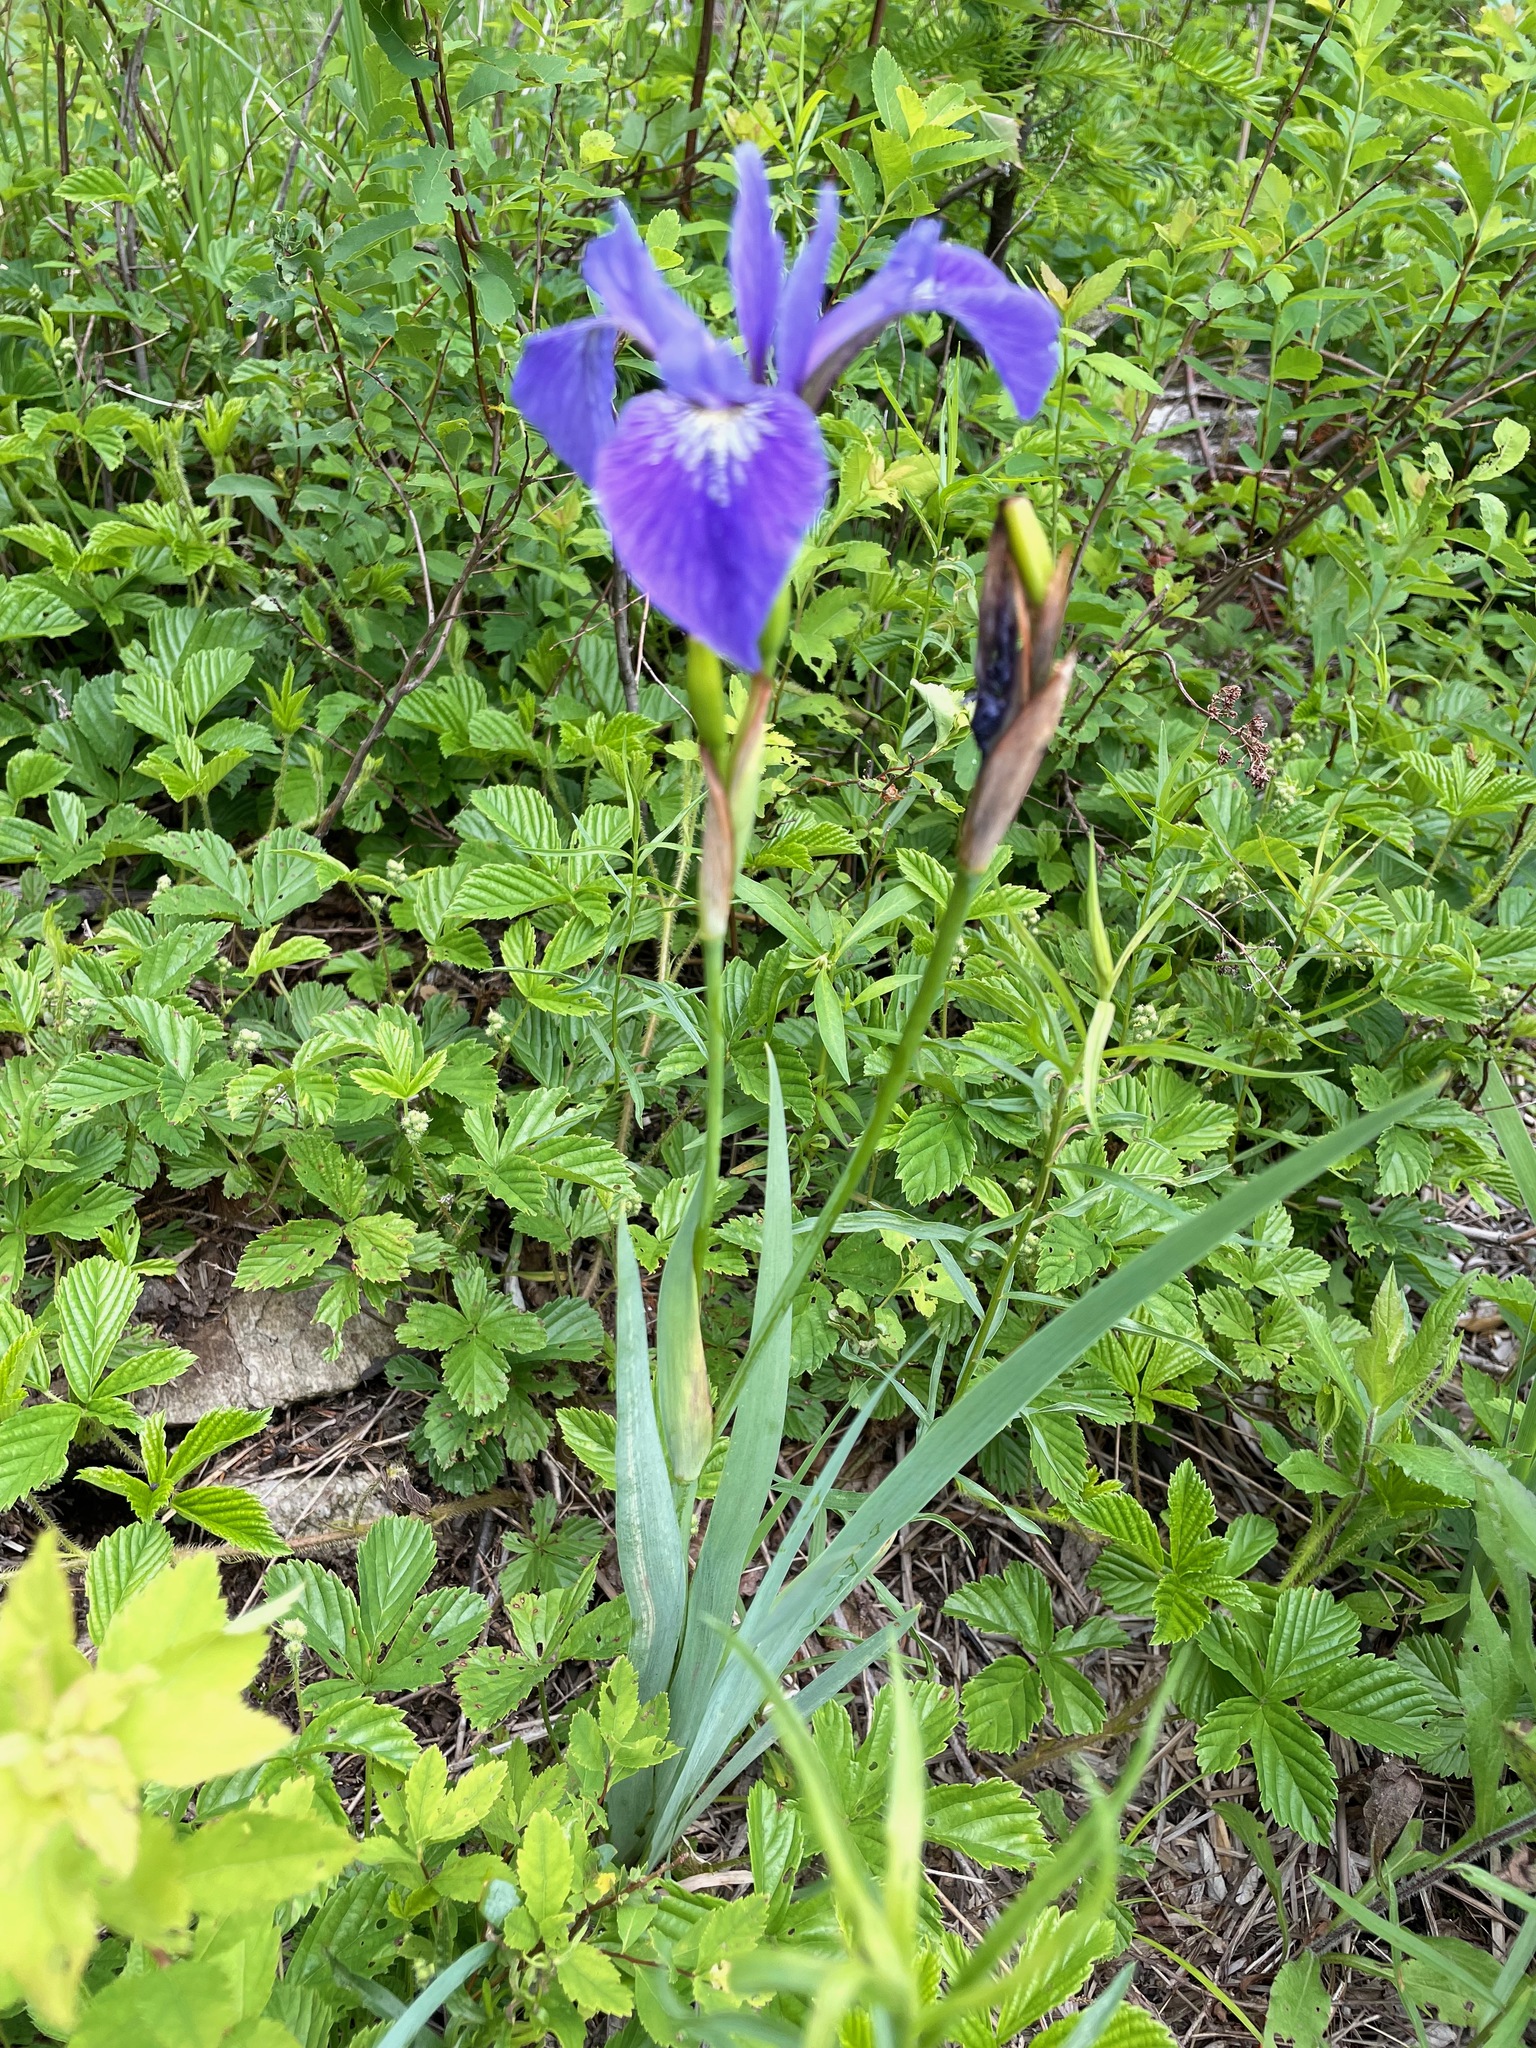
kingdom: Plantae
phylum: Tracheophyta
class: Liliopsida
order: Asparagales
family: Iridaceae
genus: Iris
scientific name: Iris versicolor
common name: Purple iris
